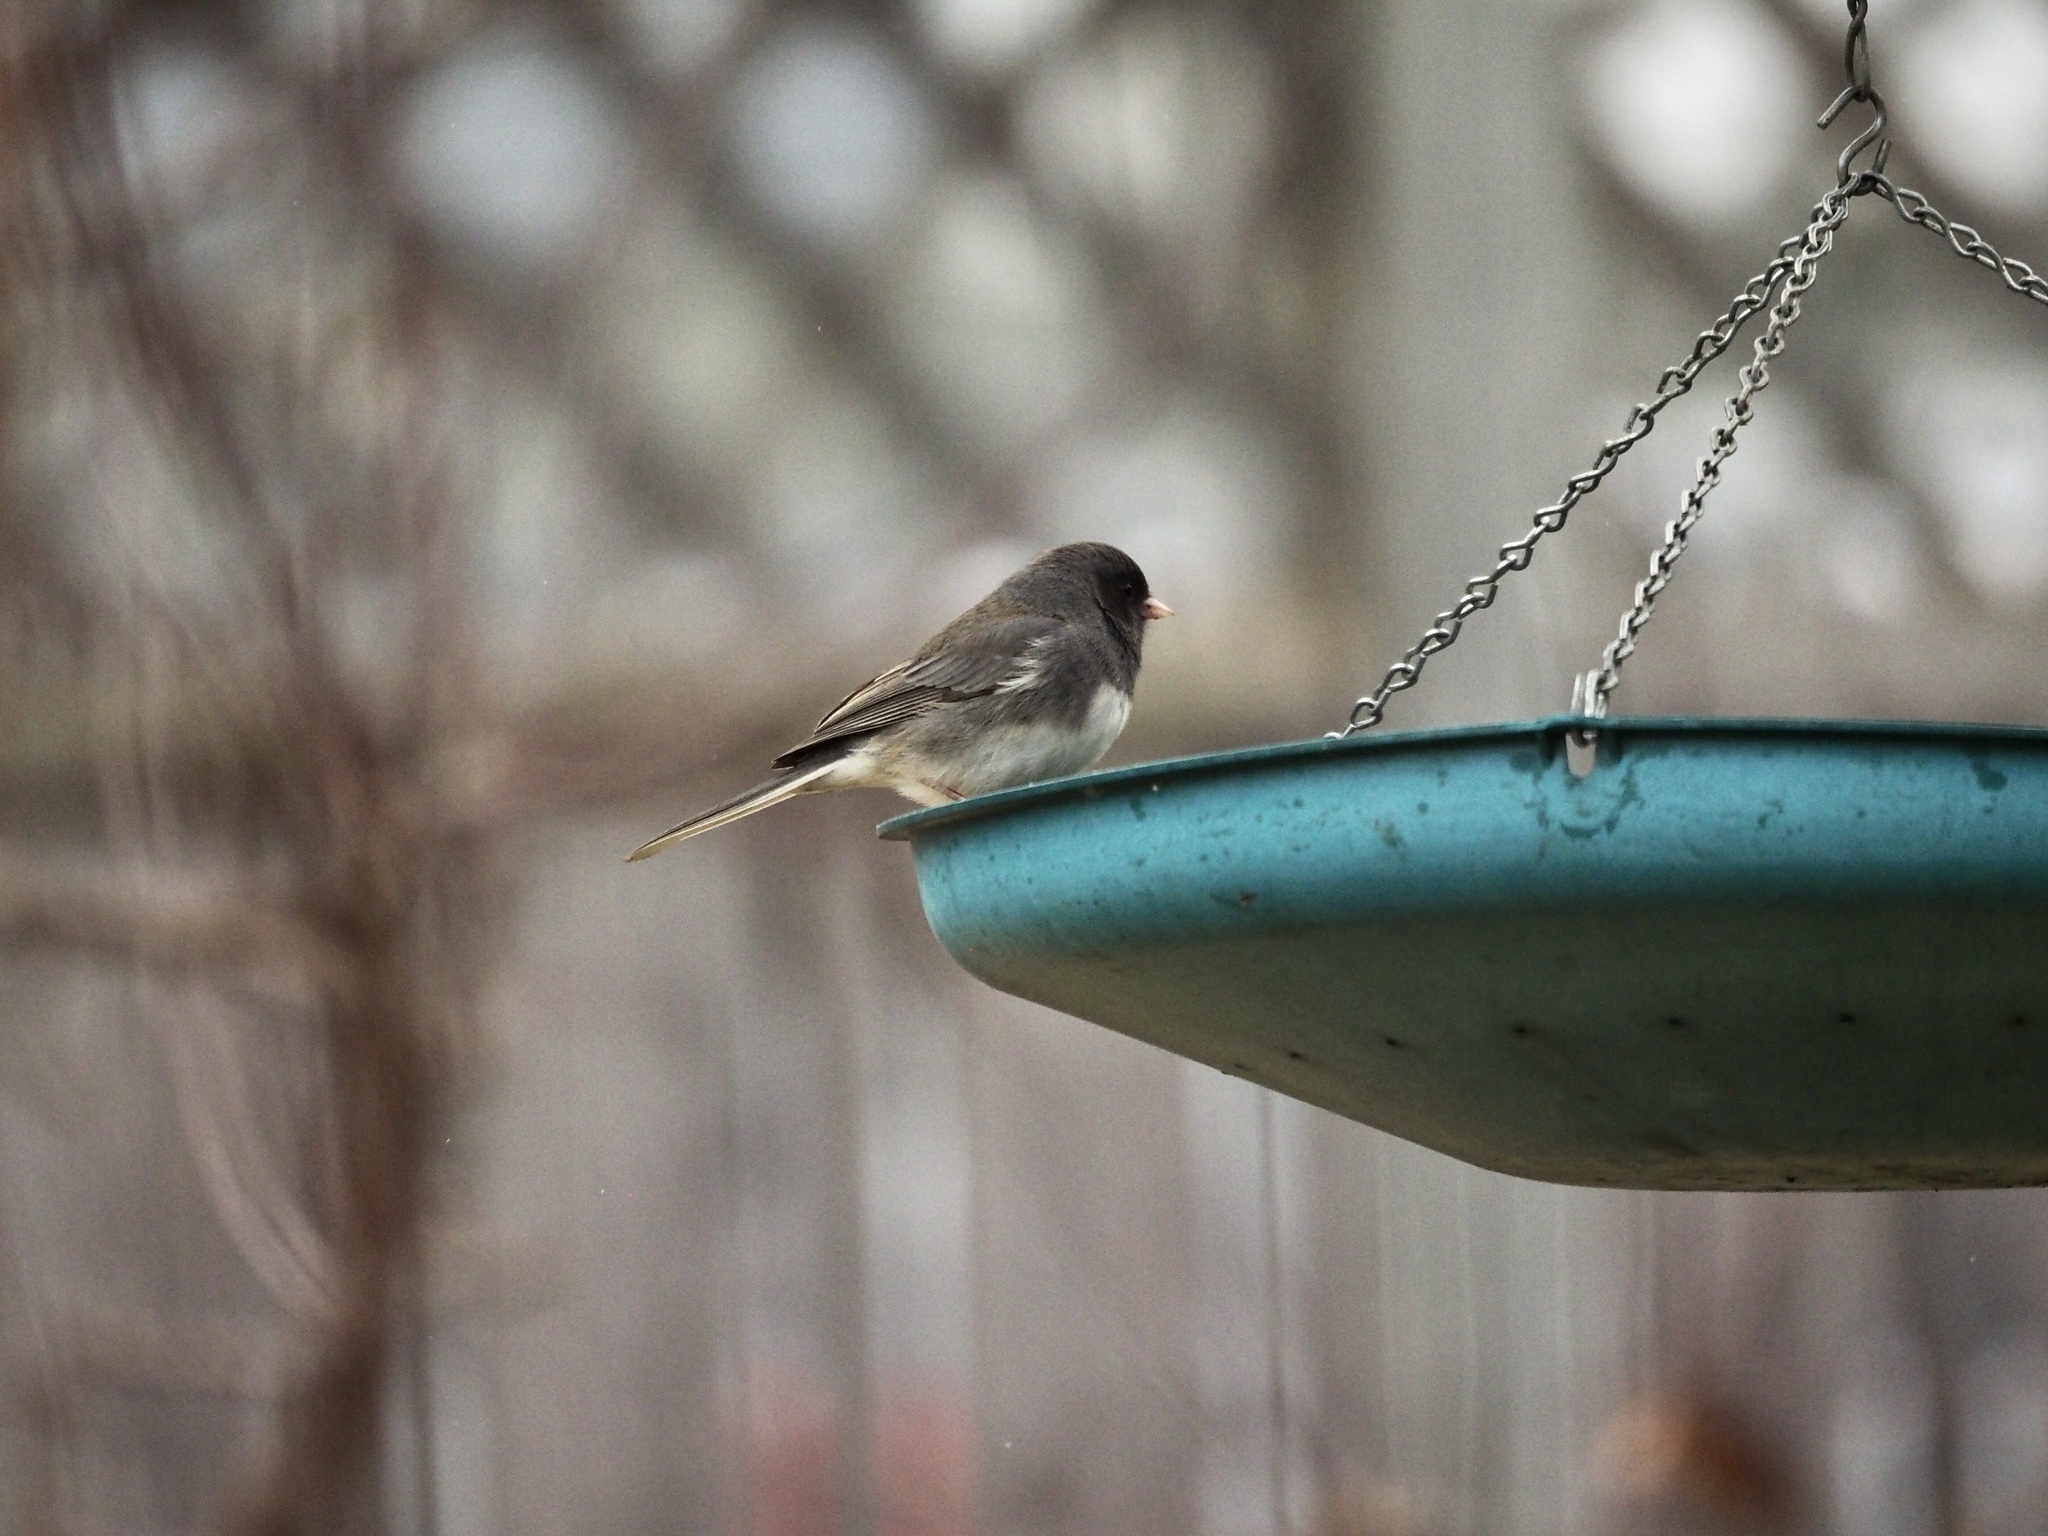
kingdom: Animalia
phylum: Chordata
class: Aves
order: Passeriformes
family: Passerellidae
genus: Junco
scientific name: Junco hyemalis
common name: Dark-eyed junco
